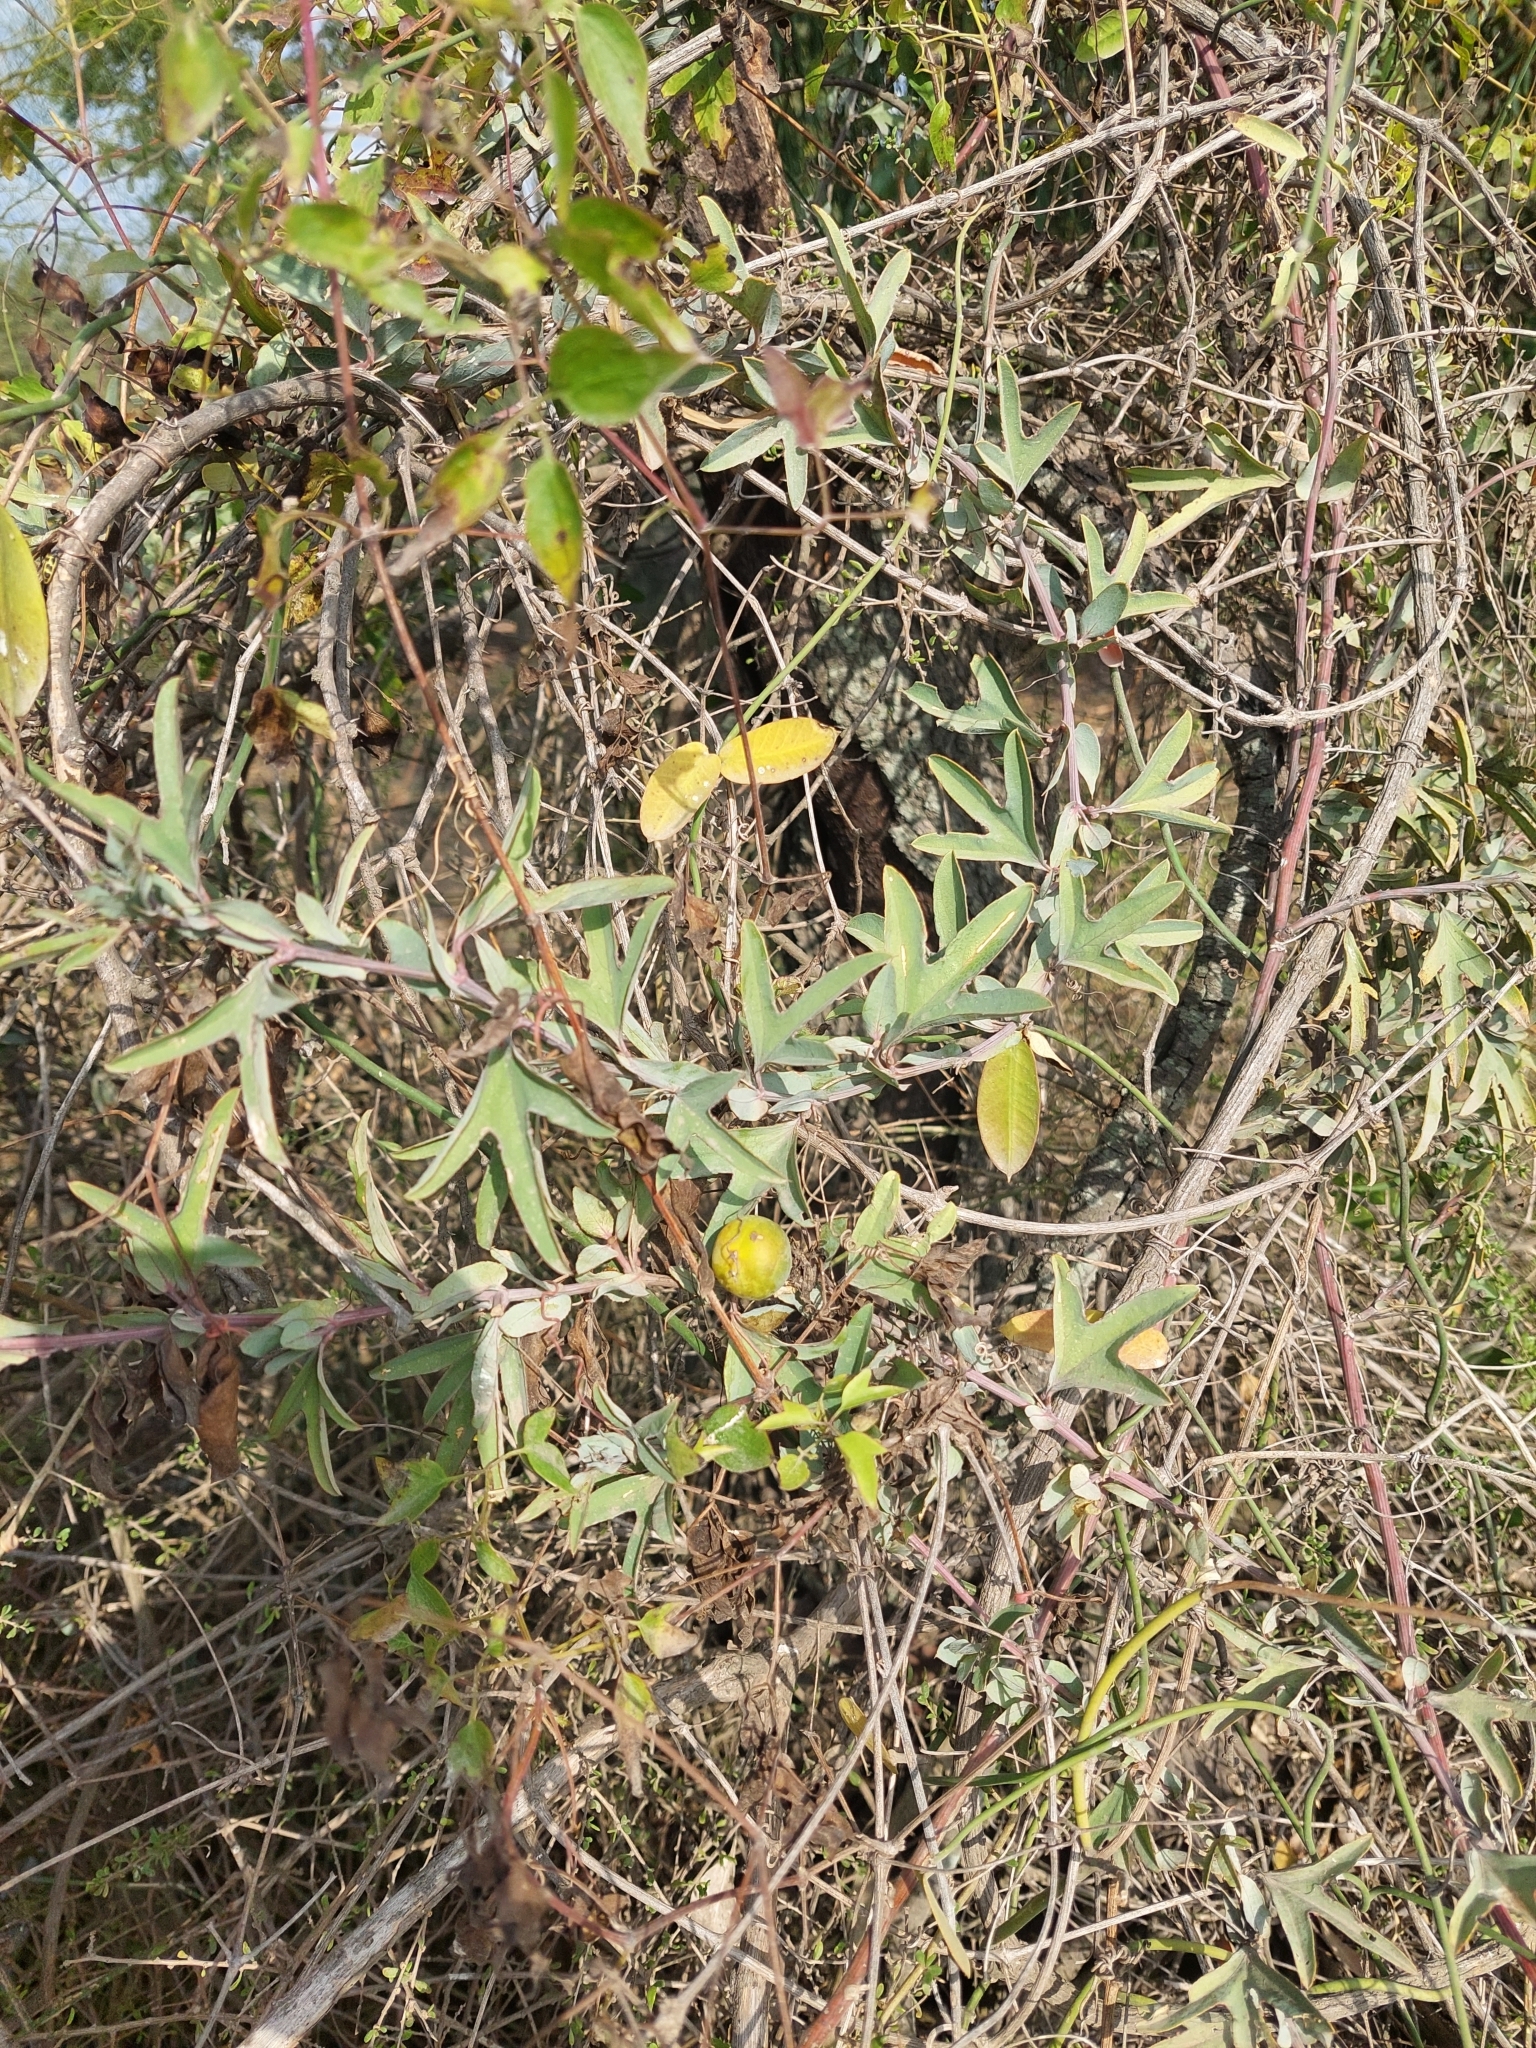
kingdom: Plantae
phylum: Tracheophyta
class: Magnoliopsida
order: Malpighiales
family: Passifloraceae
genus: Passiflora
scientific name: Passiflora mooreana
